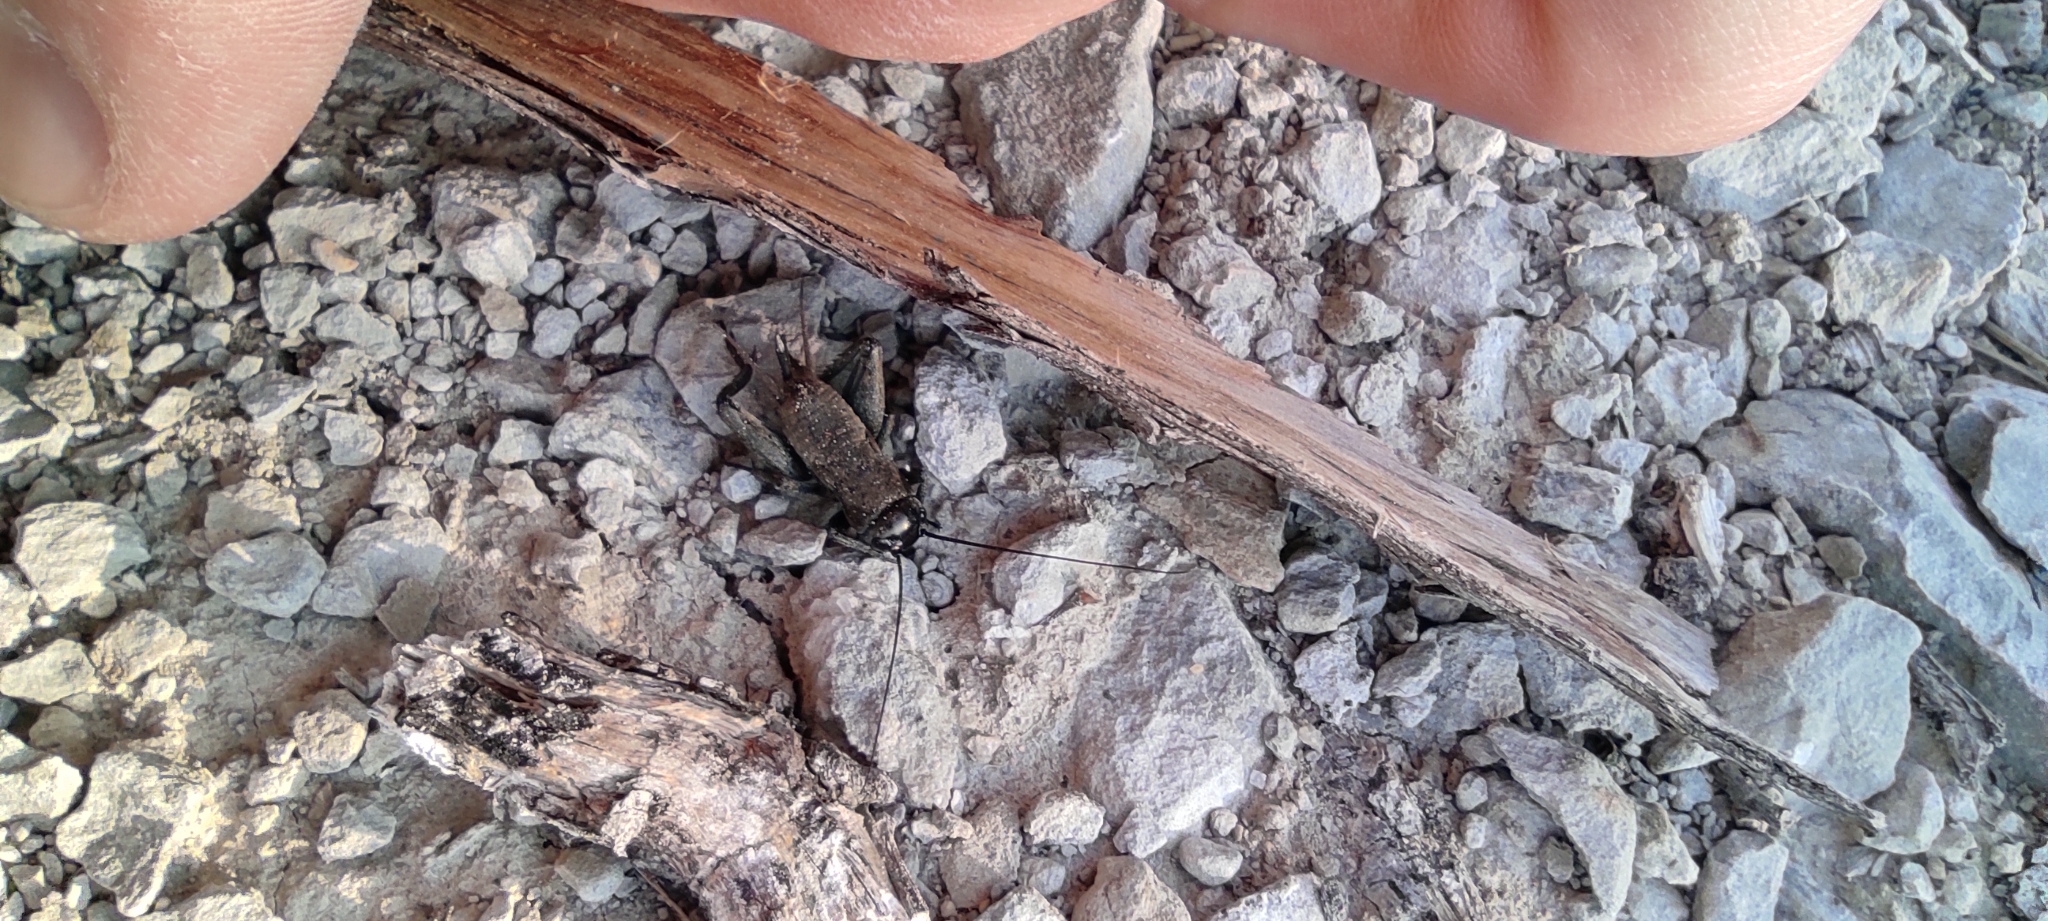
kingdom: Animalia
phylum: Arthropoda
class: Insecta
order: Orthoptera
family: Gryllidae
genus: Melanogryllus
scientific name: Melanogryllus desertus
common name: Desert cricket
